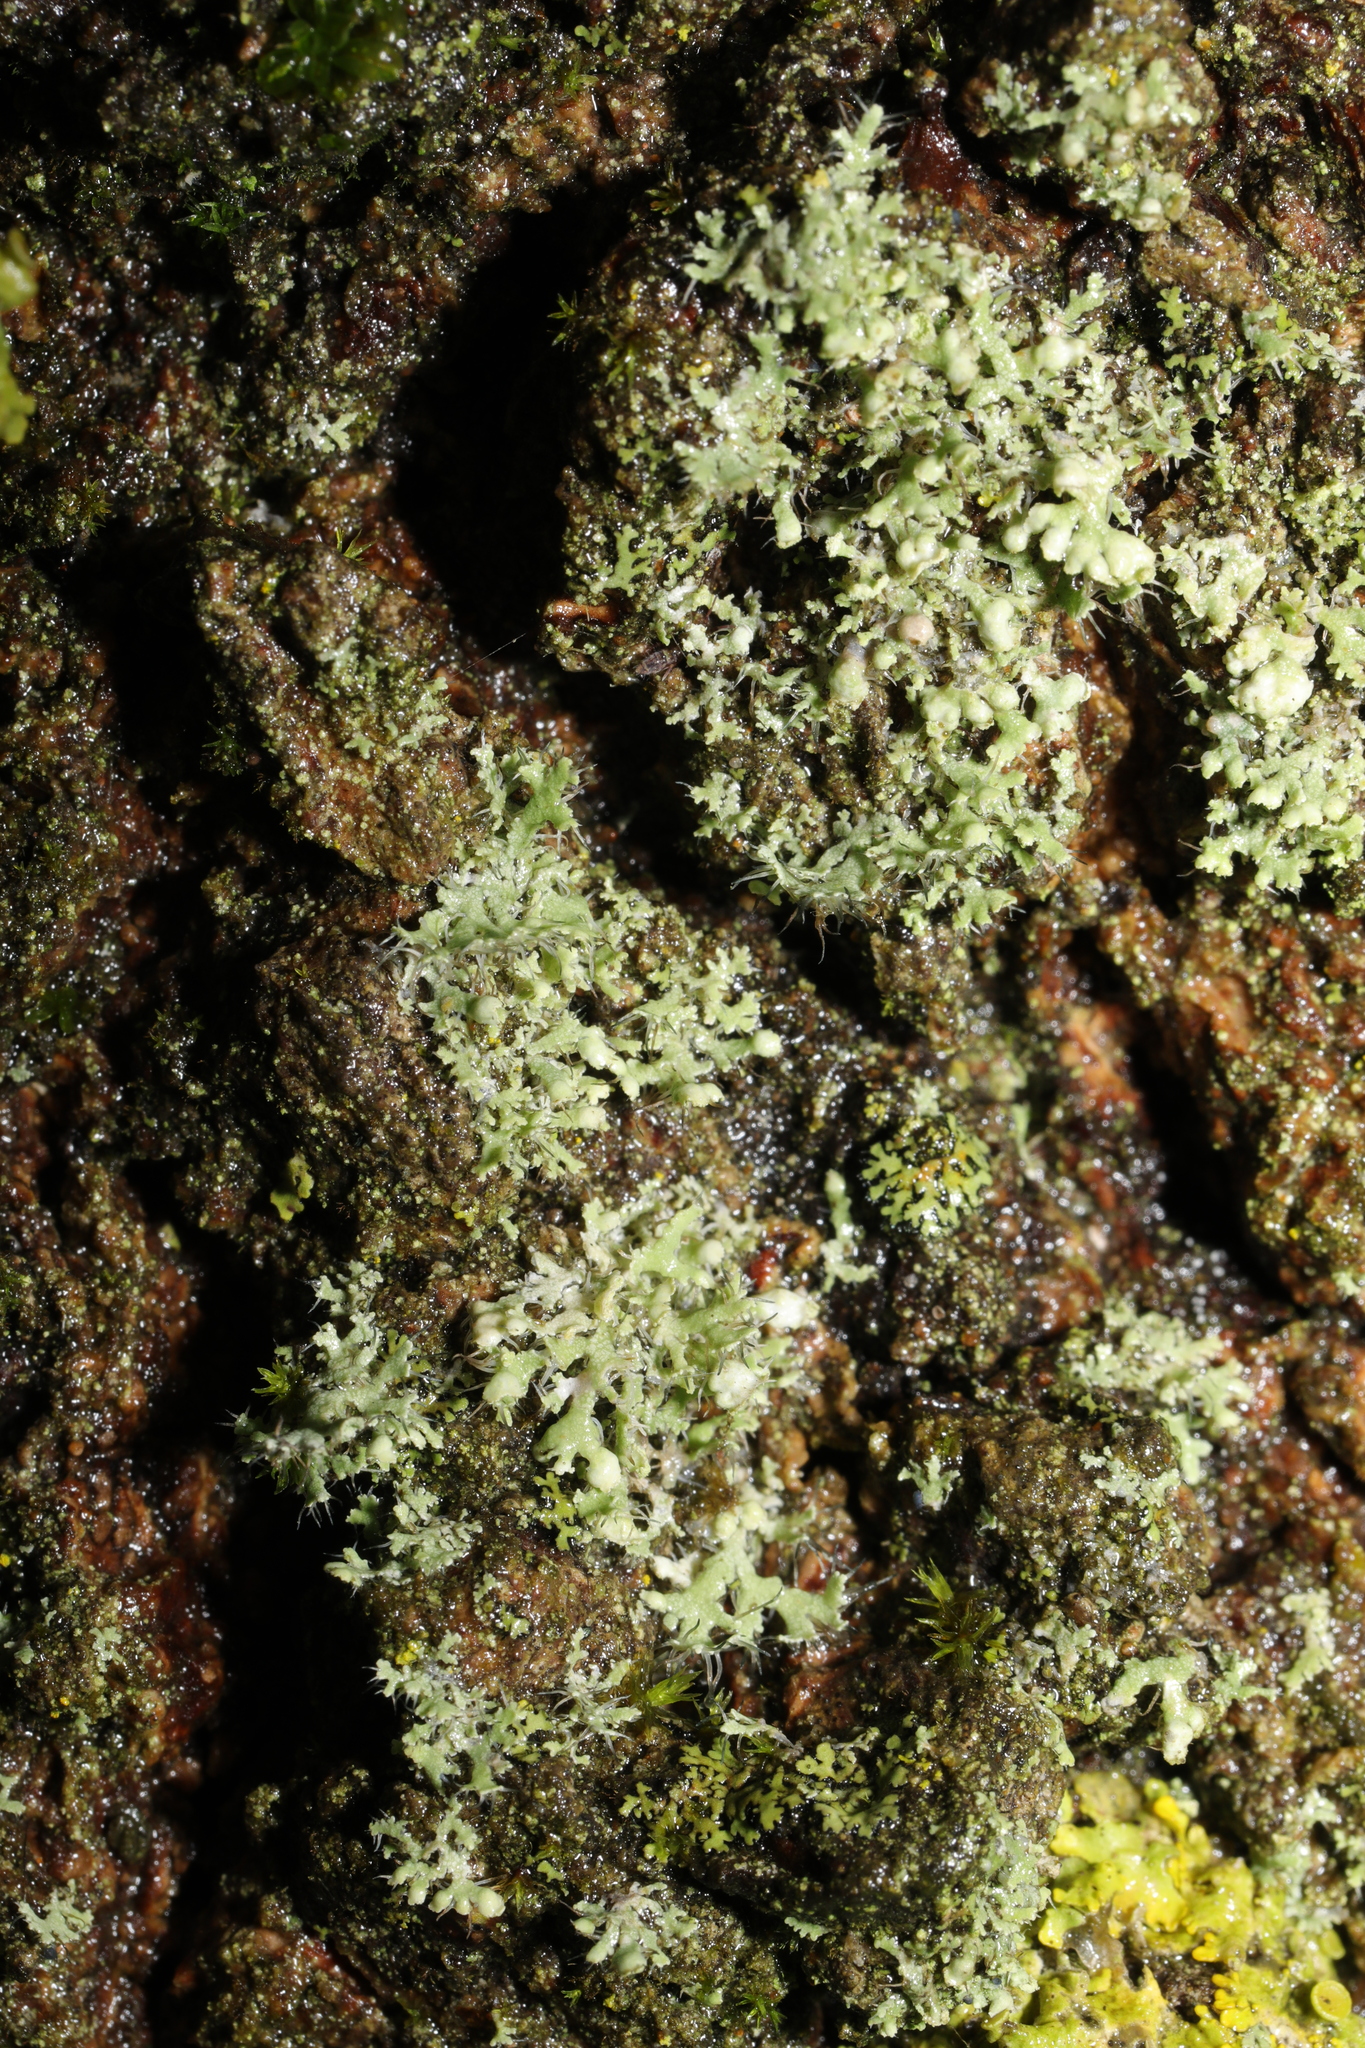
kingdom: Fungi
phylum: Ascomycota
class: Lecanoromycetes
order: Caliciales
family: Physciaceae
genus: Physcia
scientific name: Physcia adscendens
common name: Hooded rosette lichen
